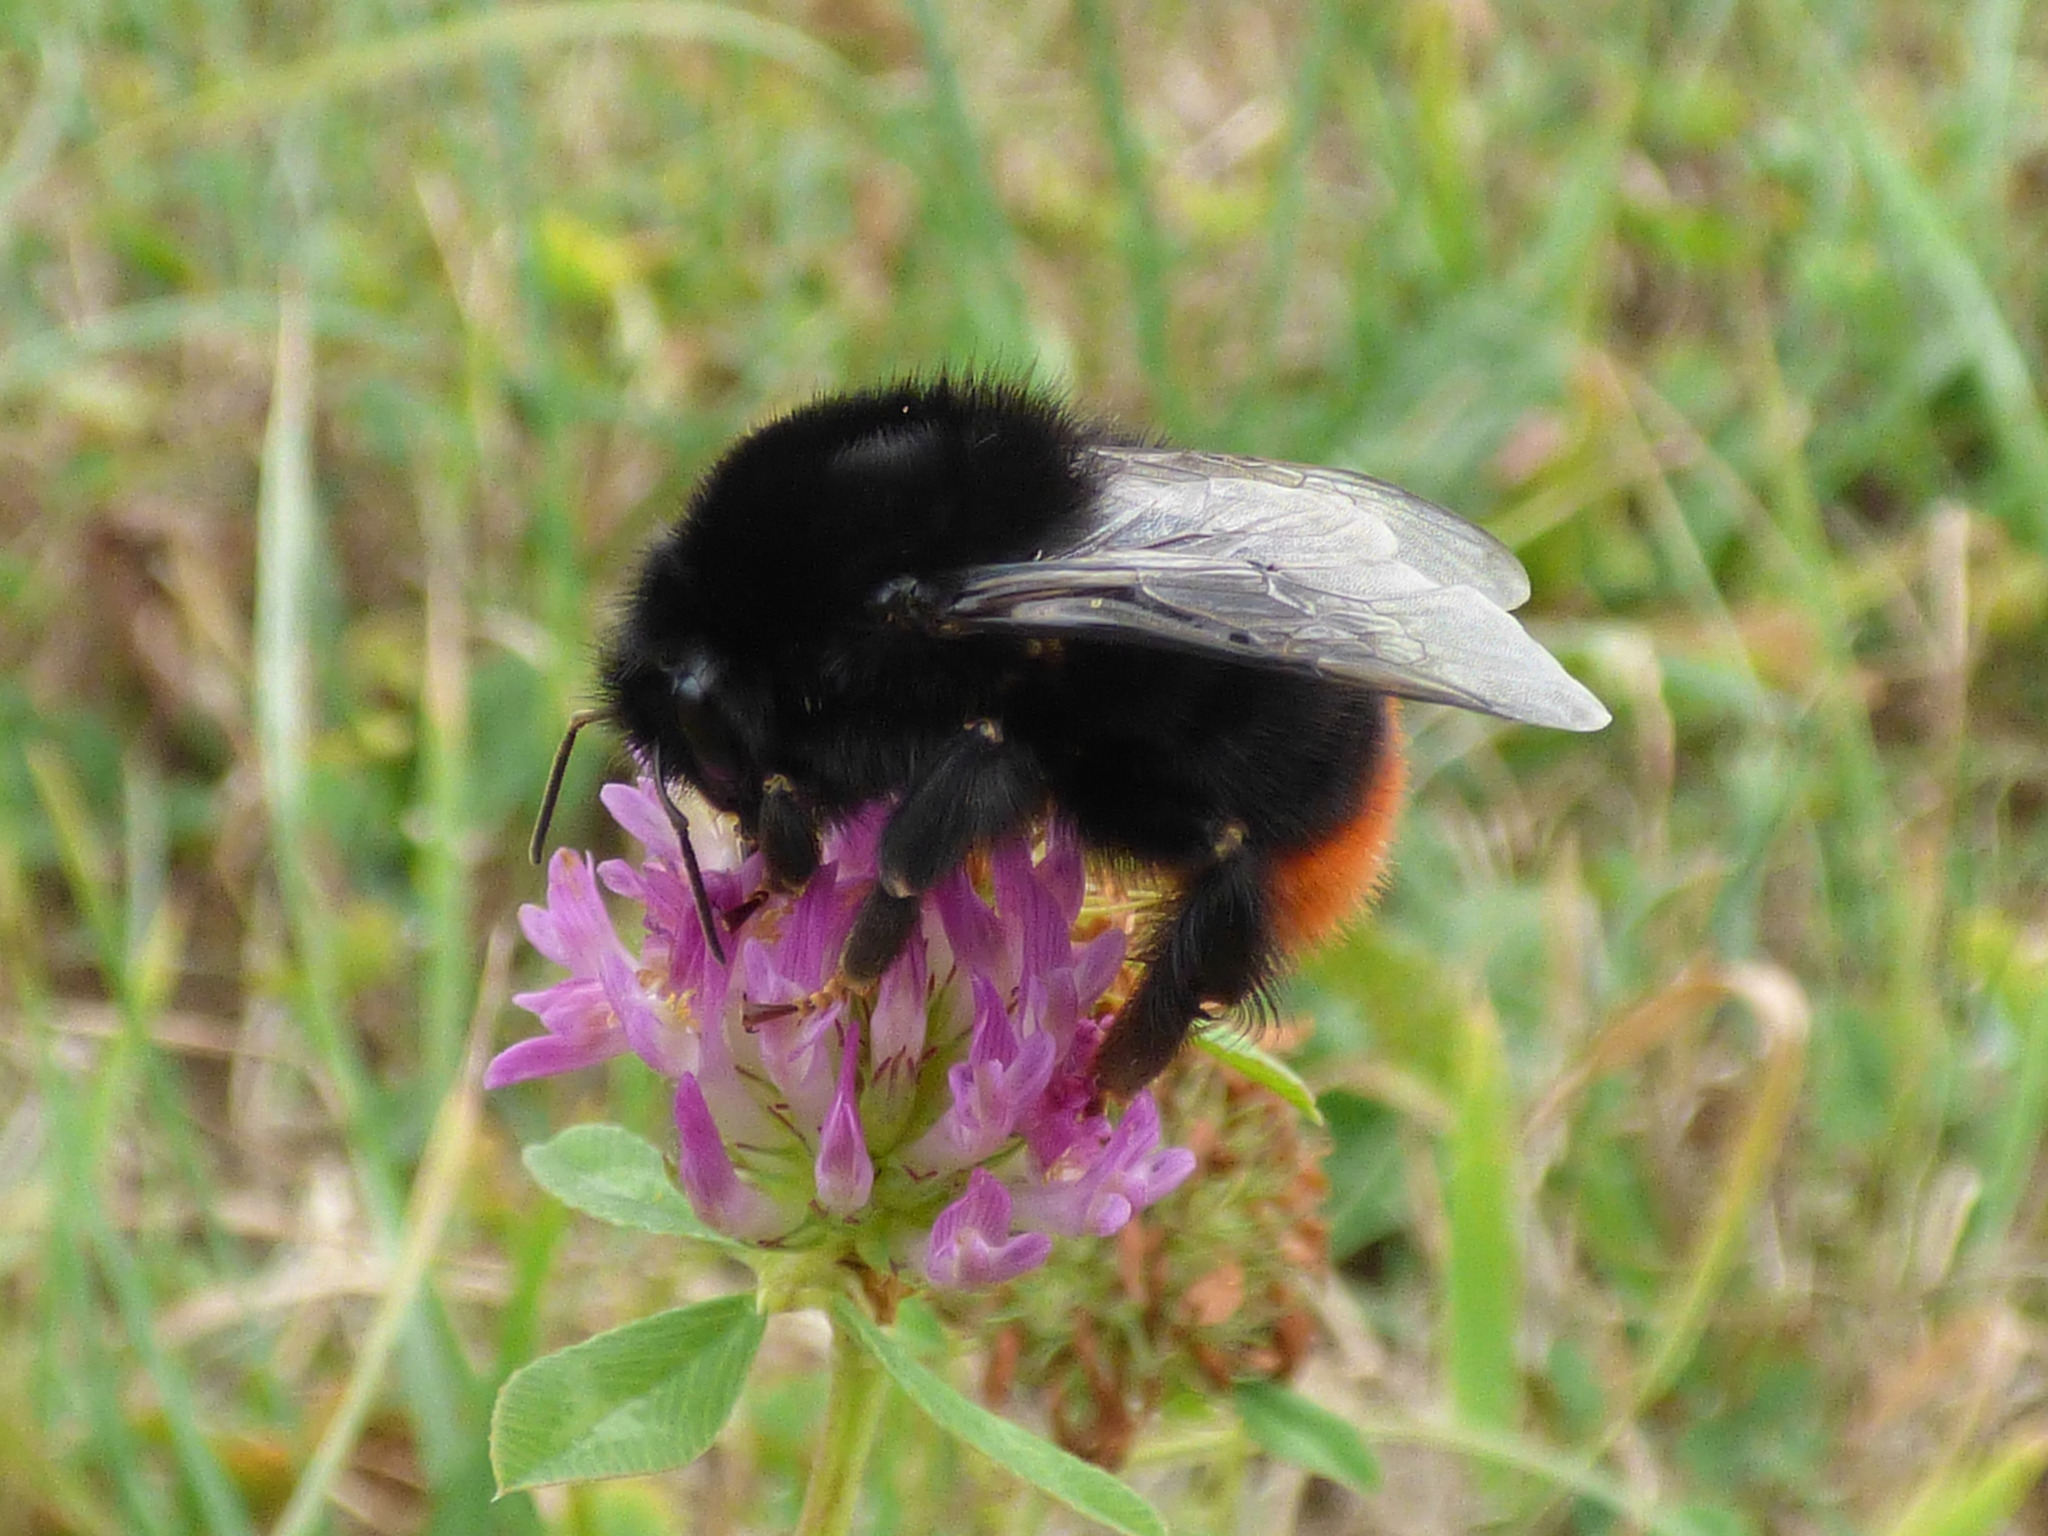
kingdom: Animalia
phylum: Arthropoda
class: Insecta
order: Hymenoptera
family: Apidae
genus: Bombus
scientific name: Bombus lapidarius
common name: Large red-tailed humble-bee
